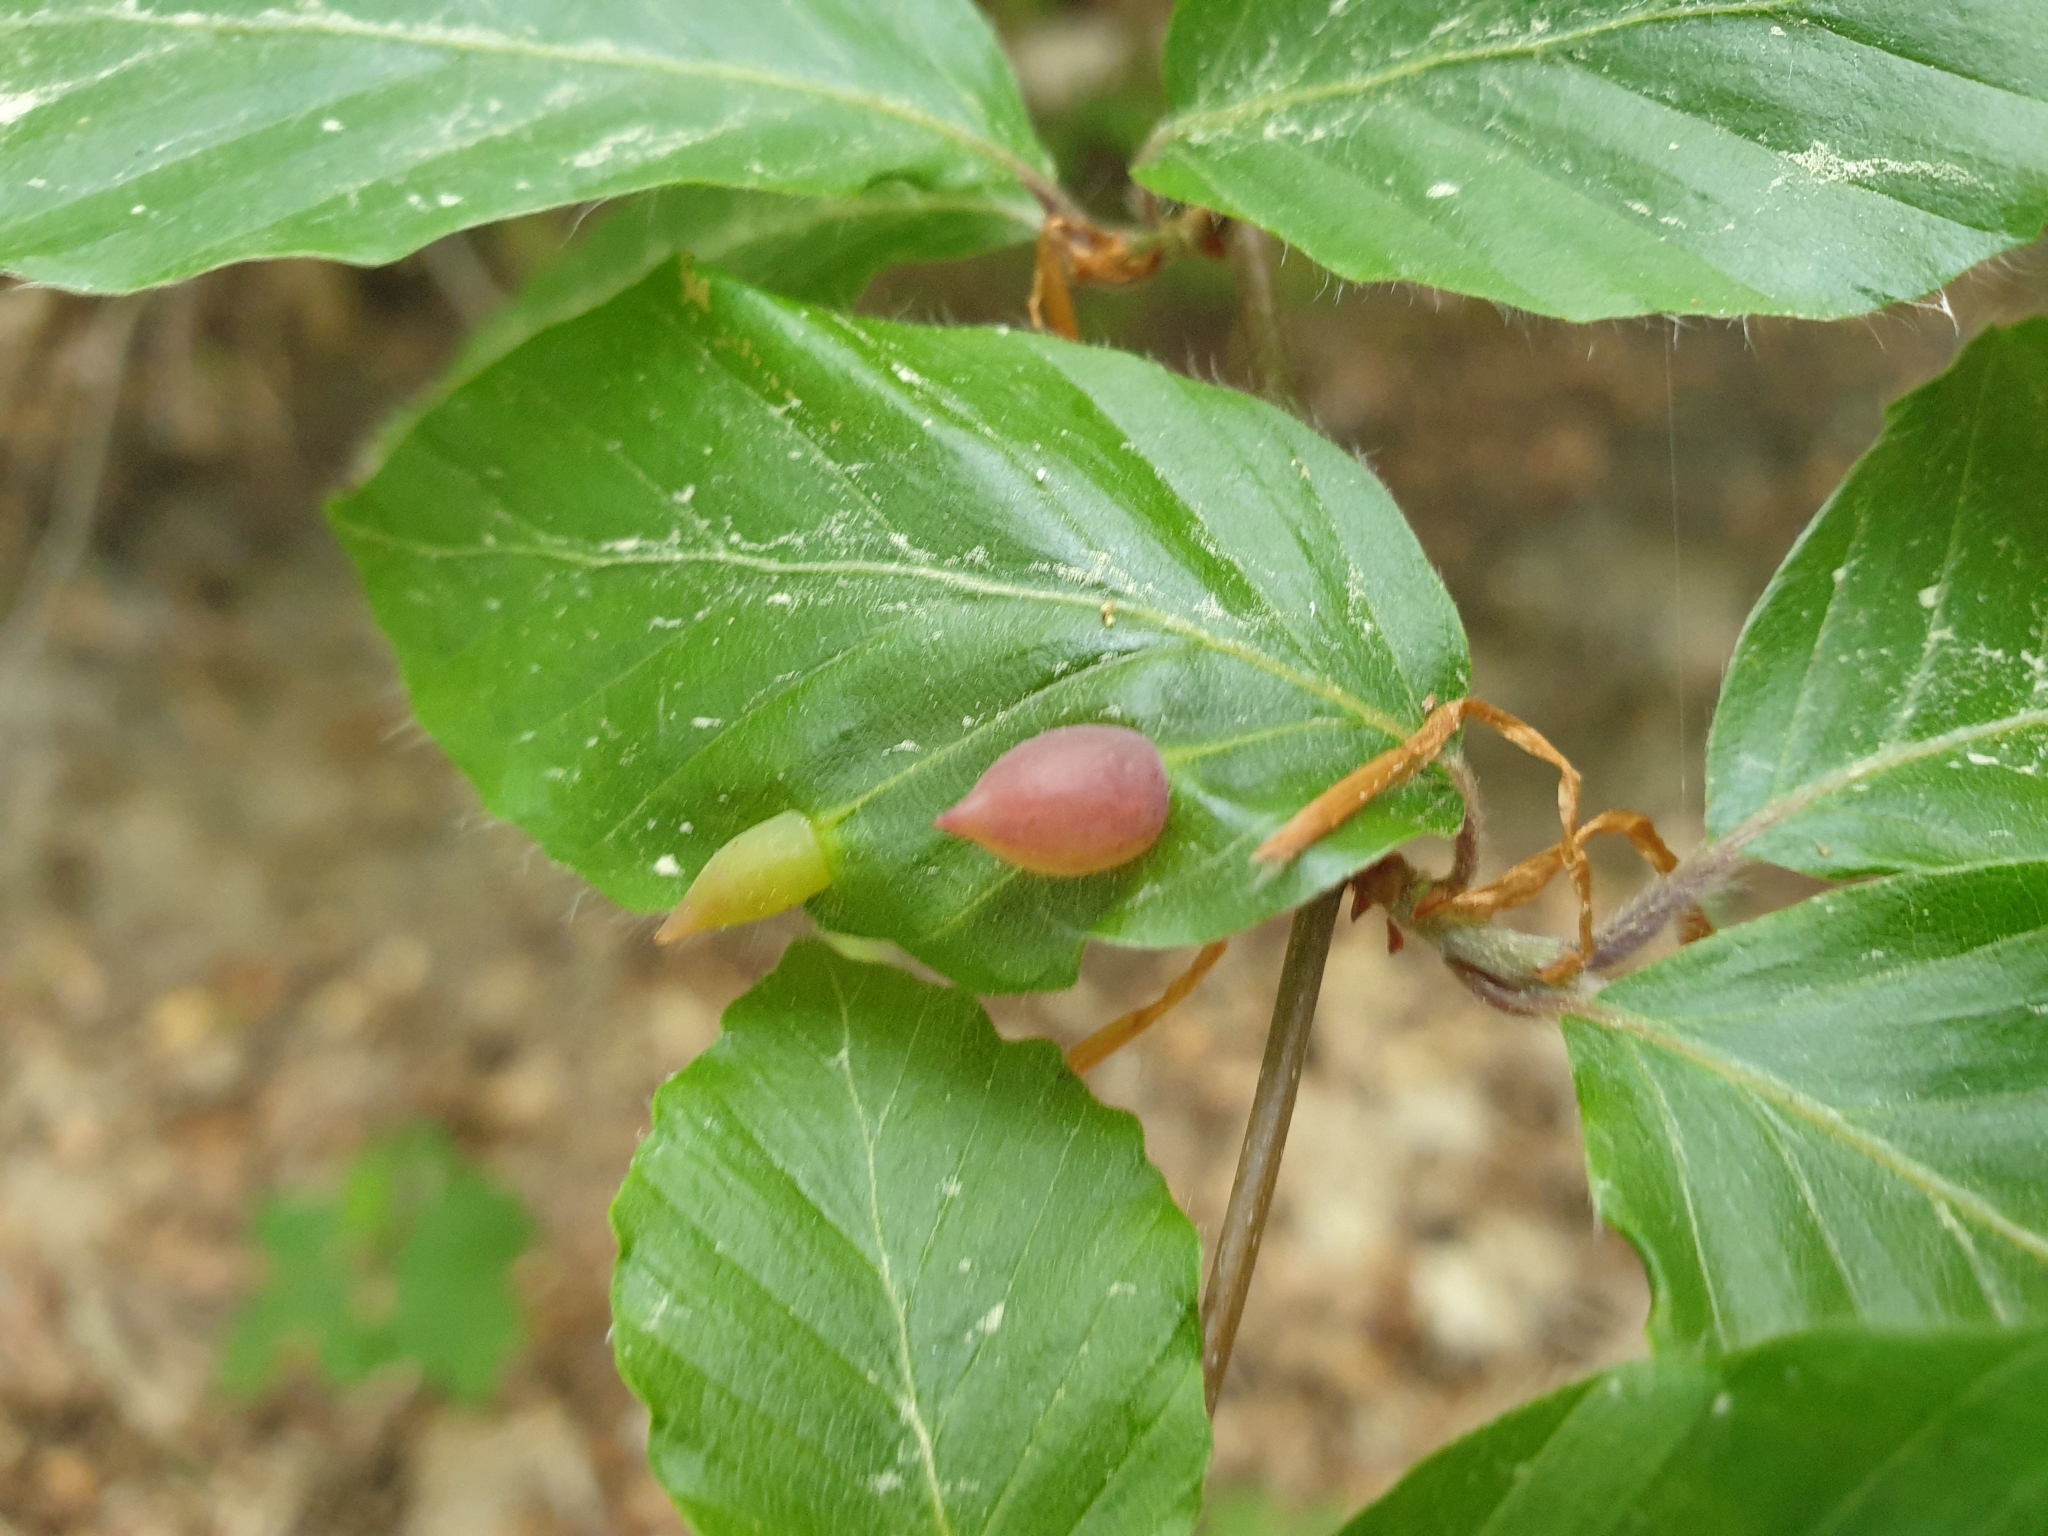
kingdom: Animalia
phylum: Arthropoda
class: Insecta
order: Diptera
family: Cecidomyiidae
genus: Mikiola
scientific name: Mikiola fagi
